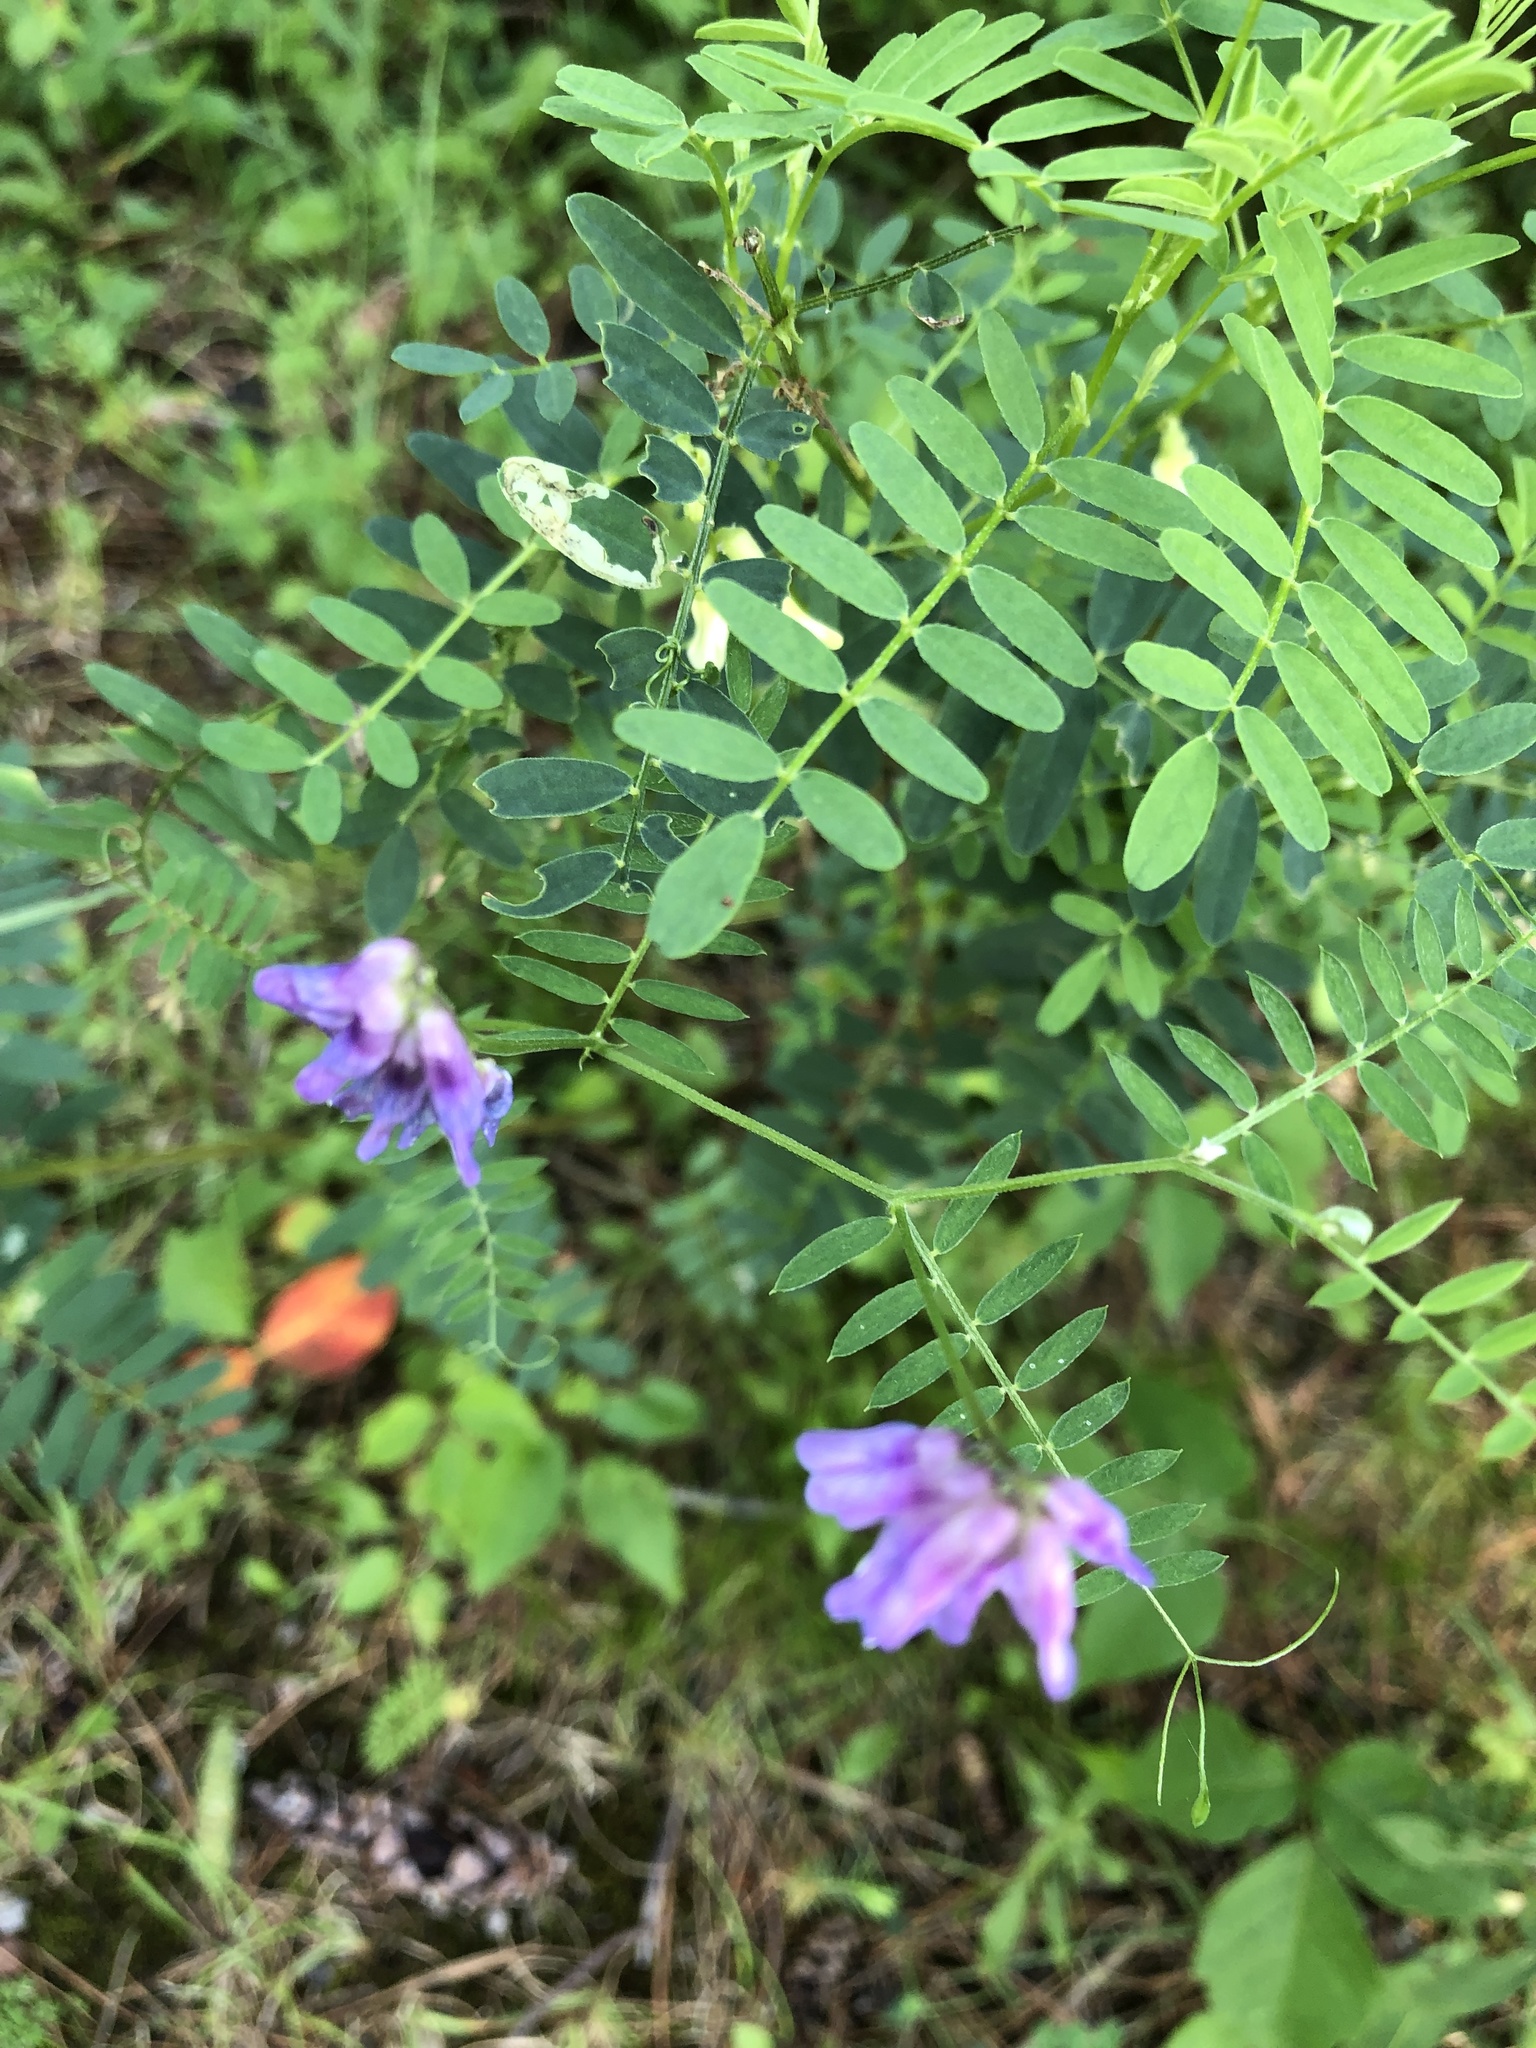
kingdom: Plantae
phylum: Tracheophyta
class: Magnoliopsida
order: Fabales
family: Fabaceae
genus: Vicia
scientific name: Vicia cracca
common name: Bird vetch
